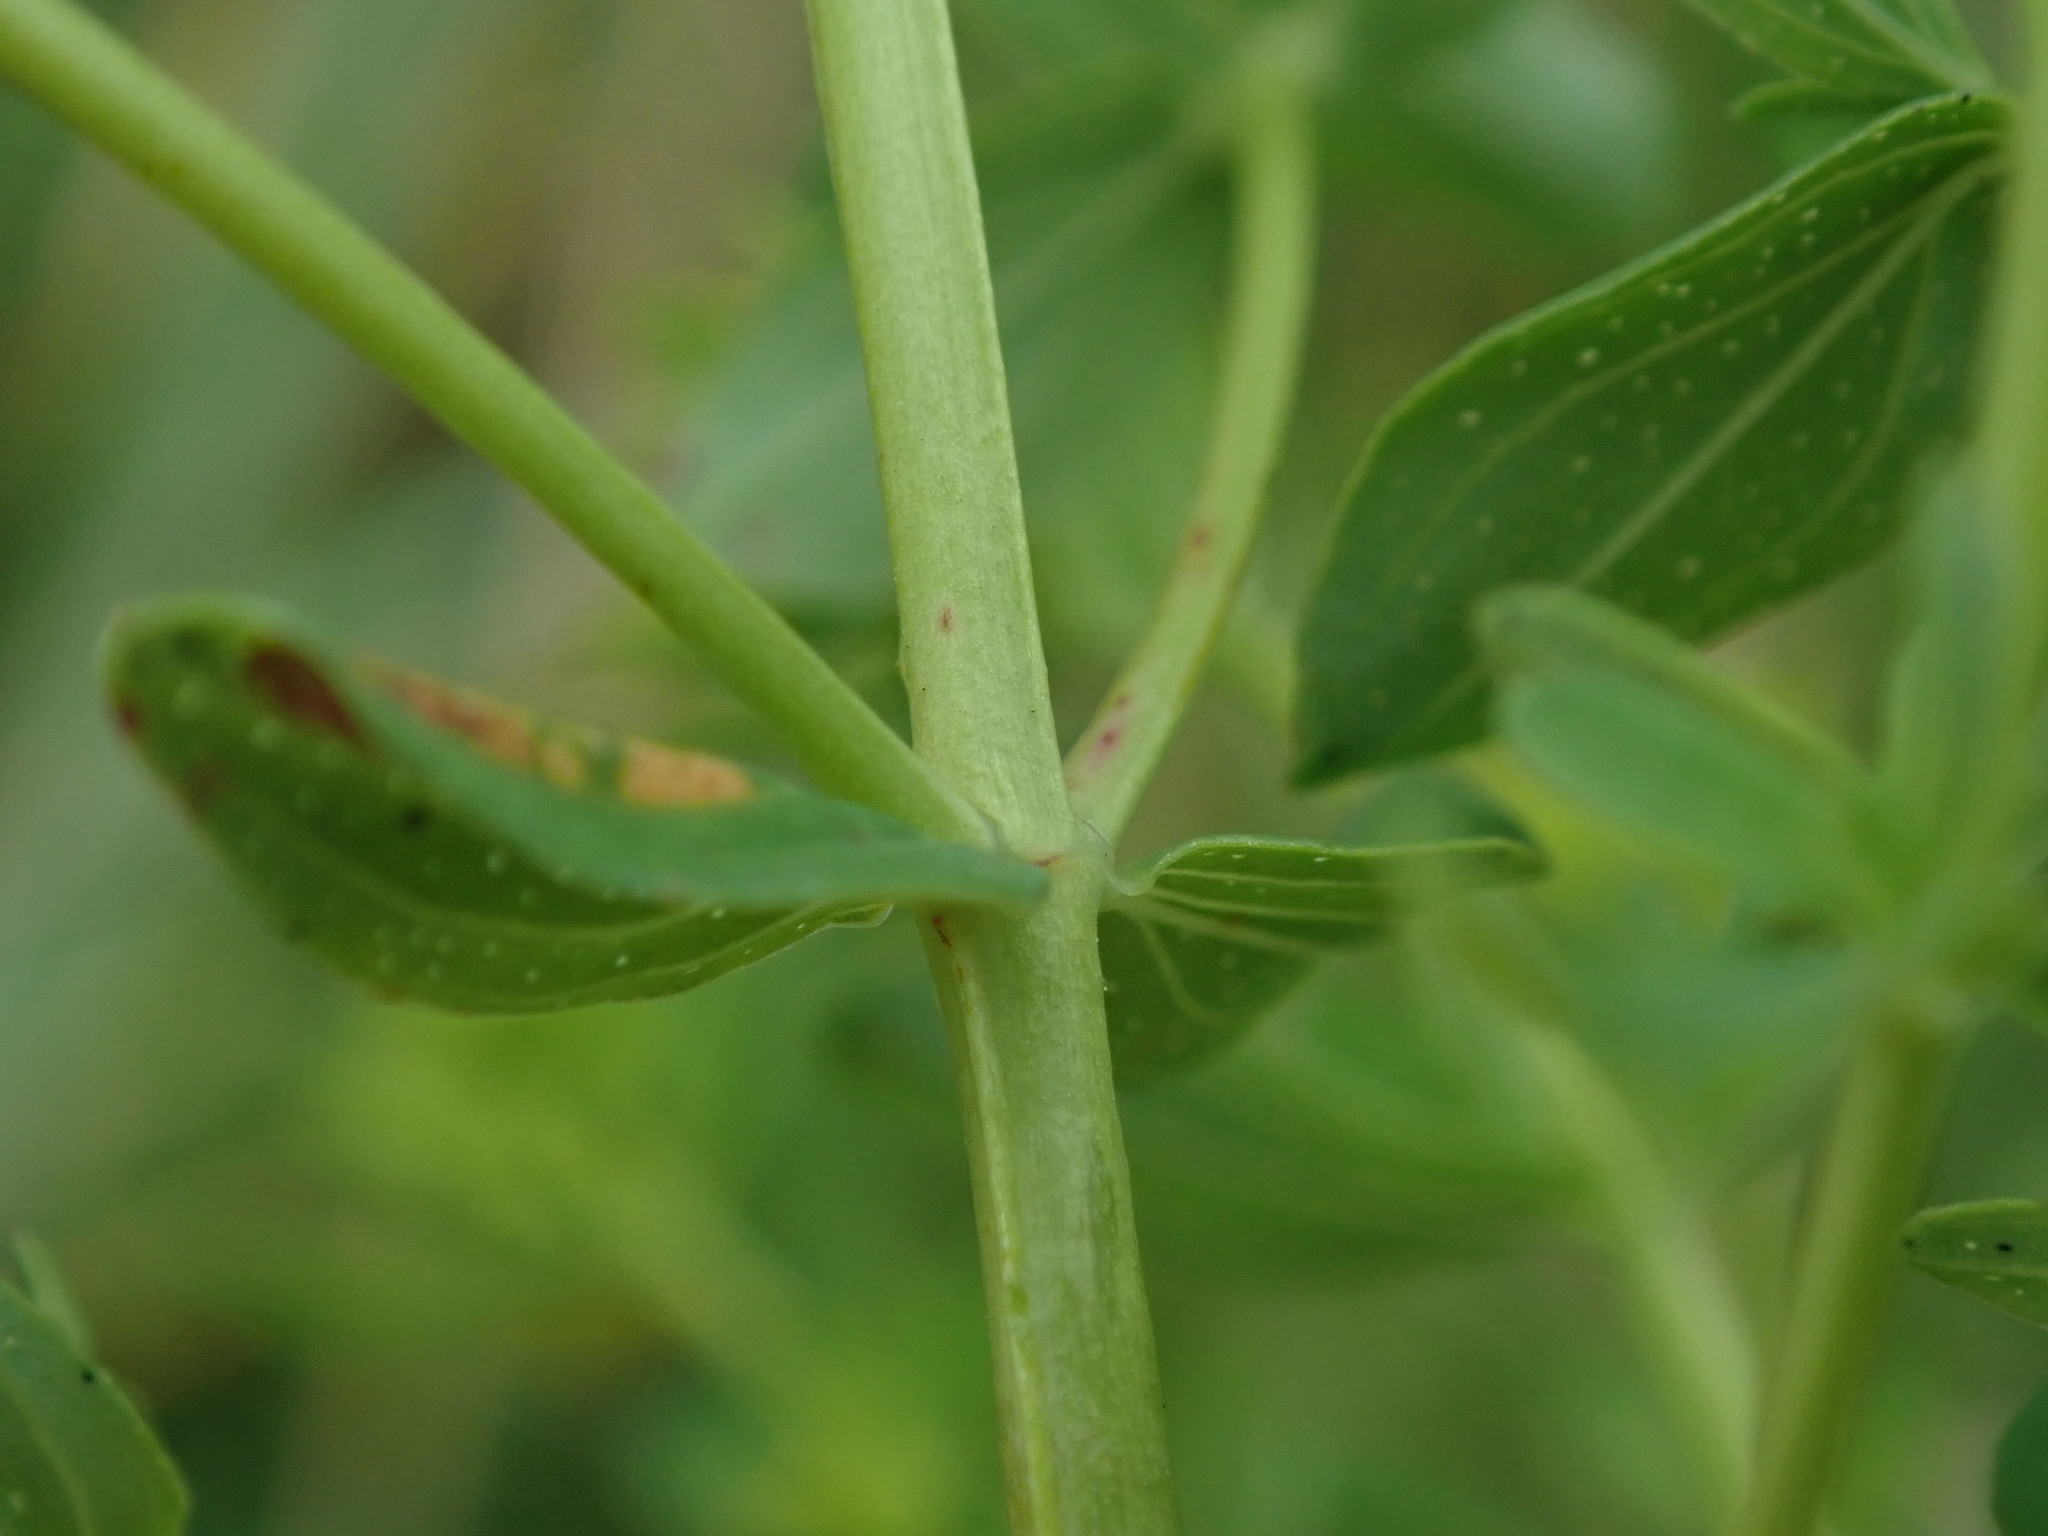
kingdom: Plantae
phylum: Tracheophyta
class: Magnoliopsida
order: Malpighiales
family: Hypericaceae
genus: Hypericum
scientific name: Hypericum perforatum
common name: Common st. johnswort
